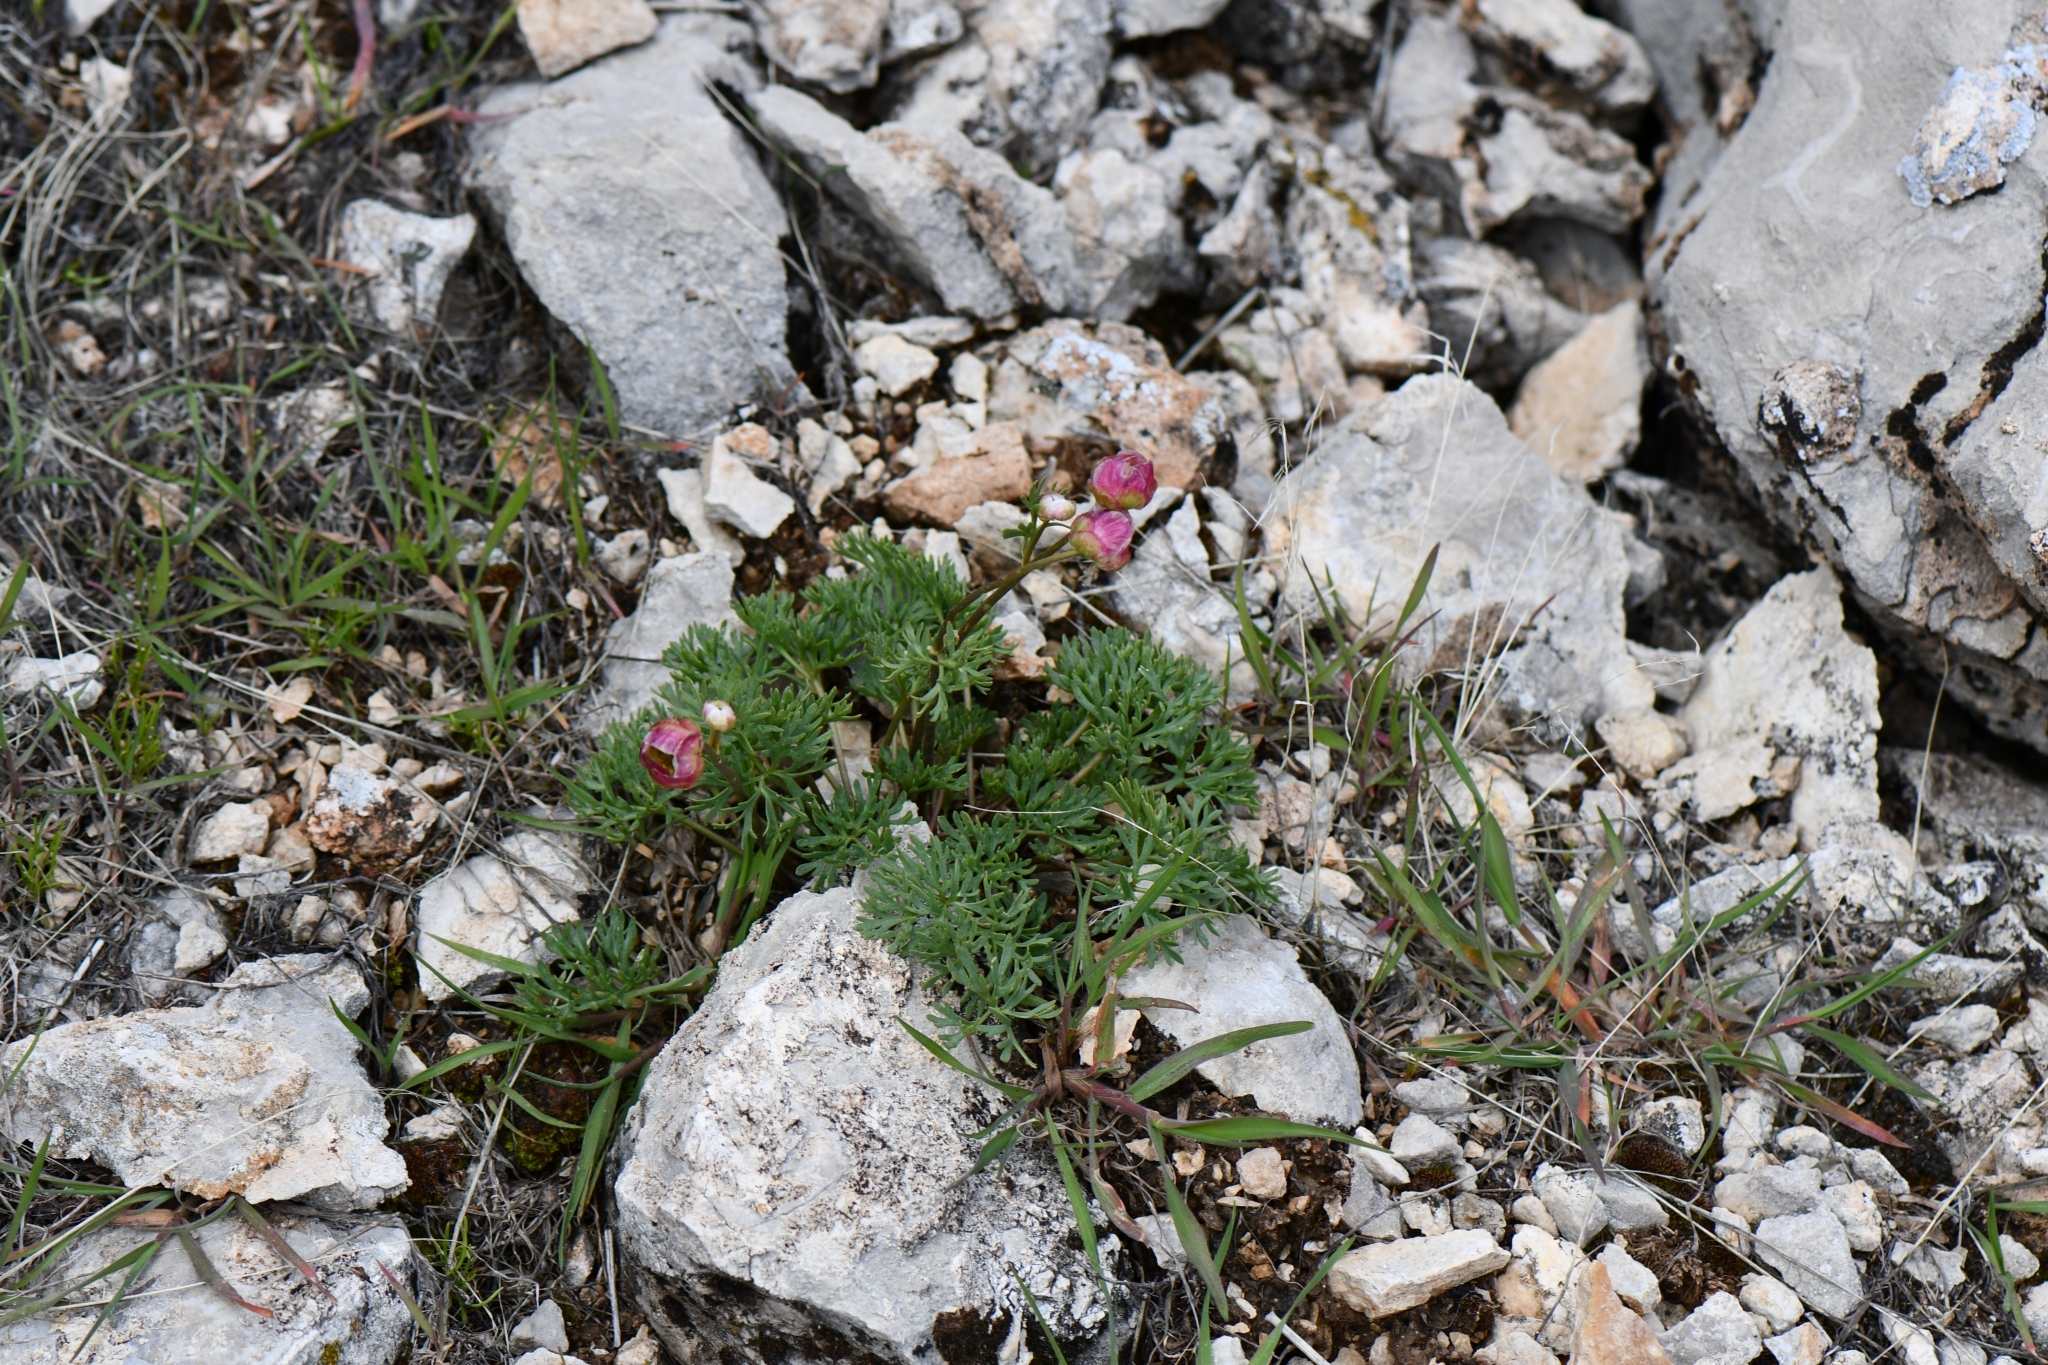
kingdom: Plantae
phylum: Tracheophyta
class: Magnoliopsida
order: Ranunculales
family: Ranunculaceae
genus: Beckwithia
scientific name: Beckwithia andersonii
